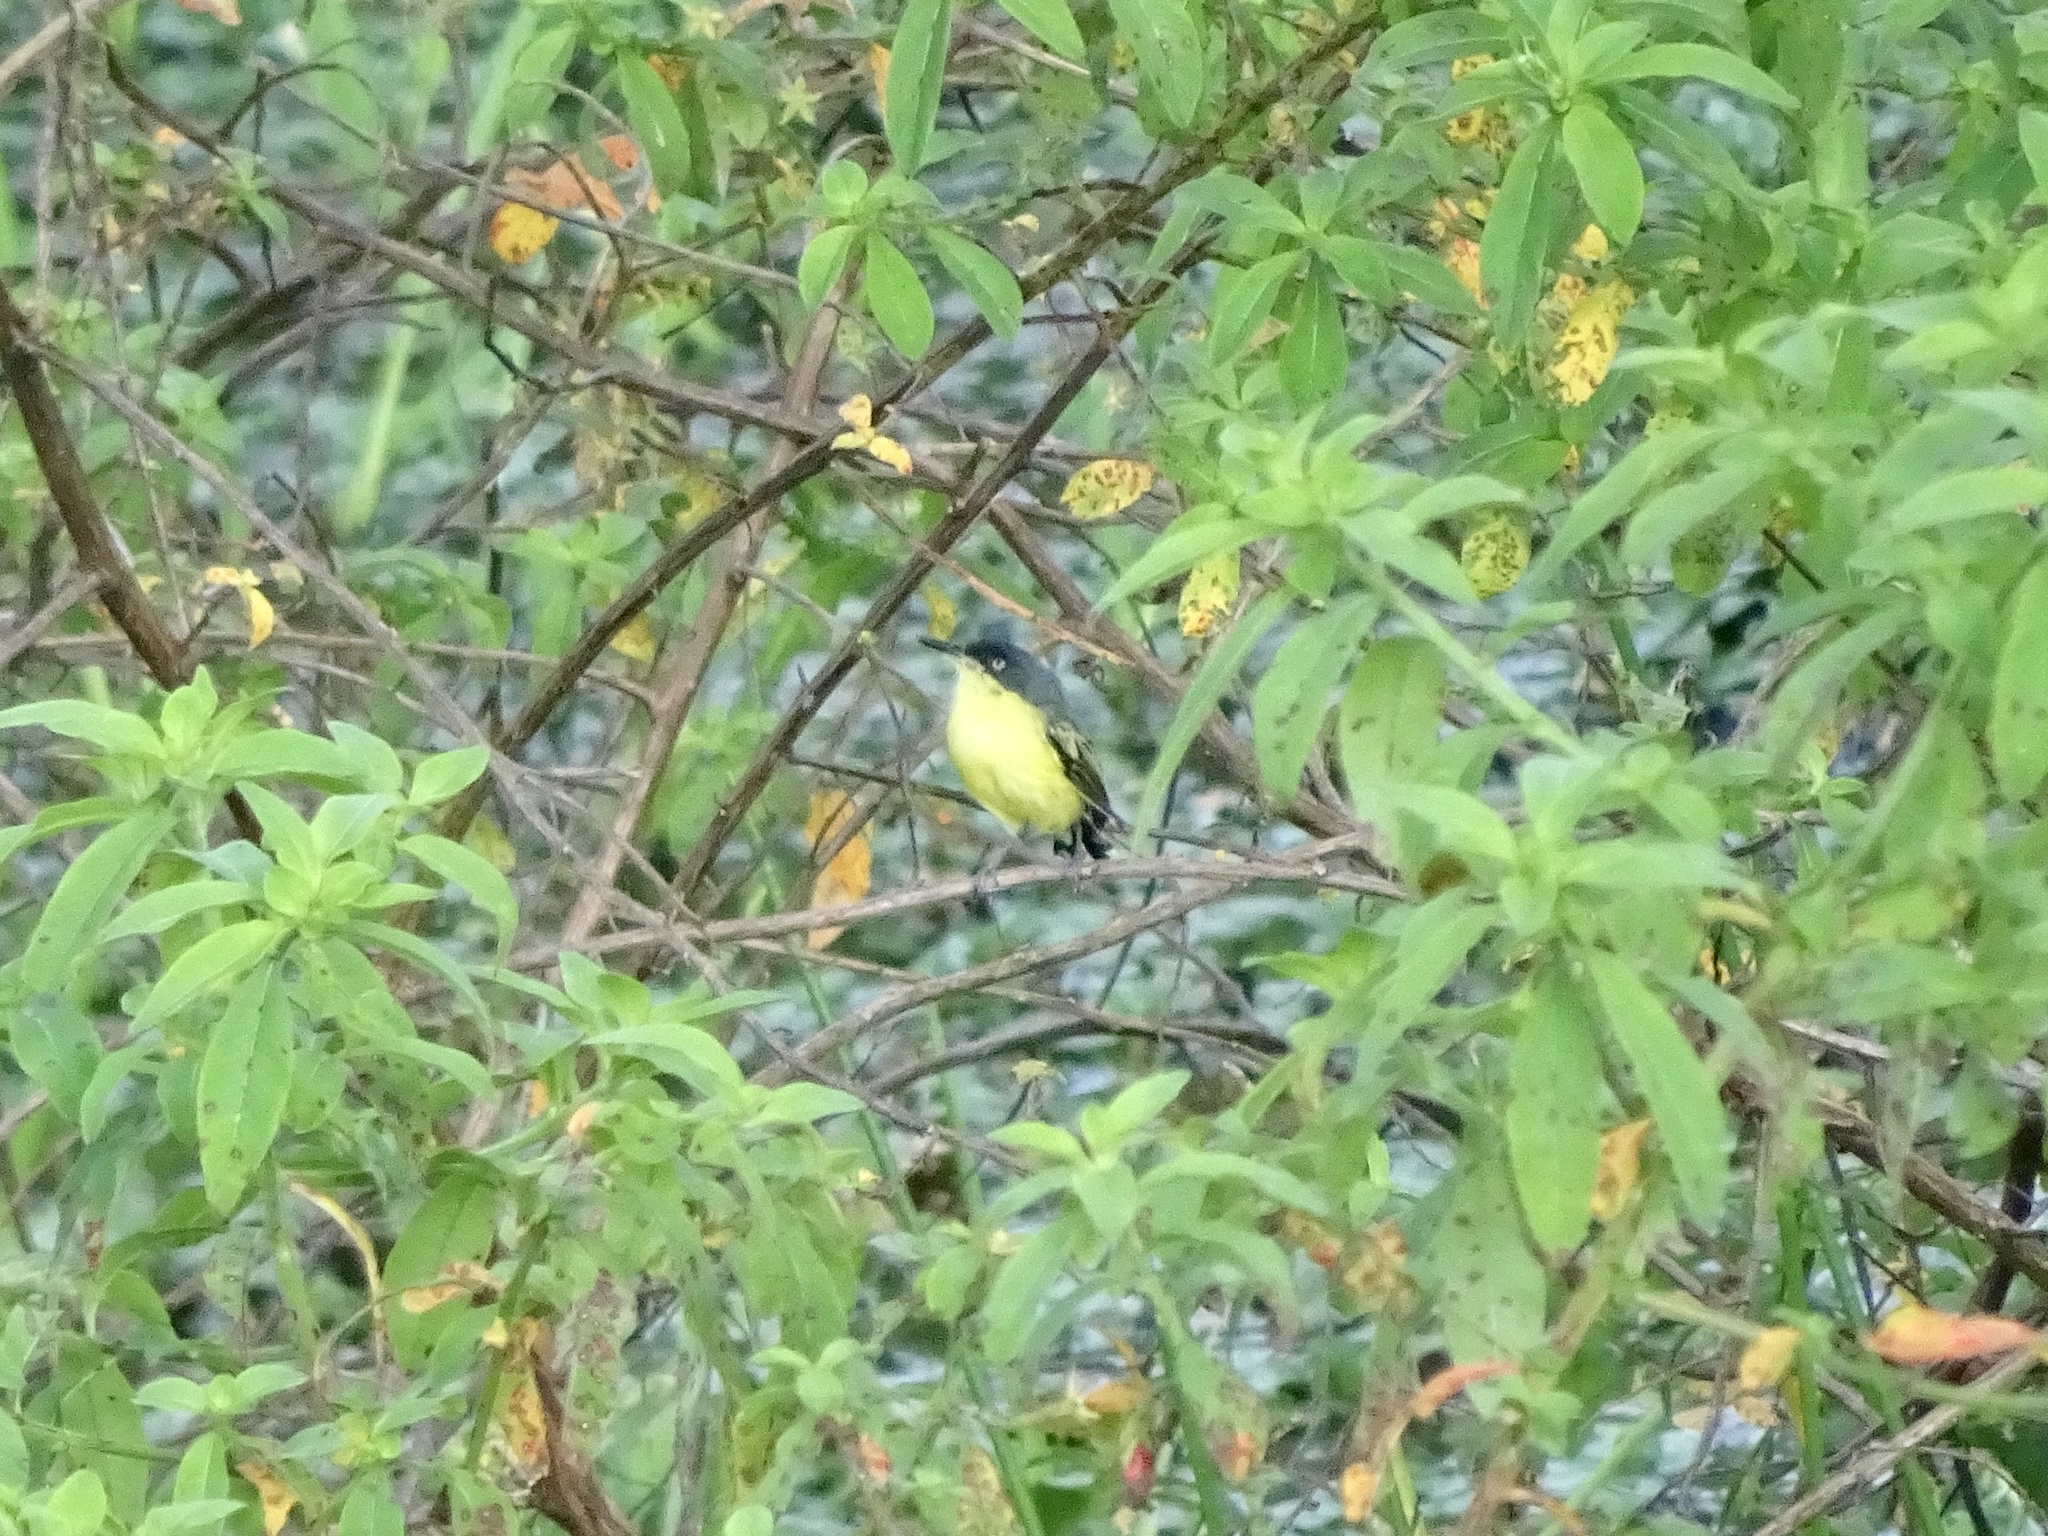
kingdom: Animalia
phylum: Chordata
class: Aves
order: Passeriformes
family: Tyrannidae
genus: Todirostrum
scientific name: Todirostrum cinereum
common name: Common tody-flycatcher
